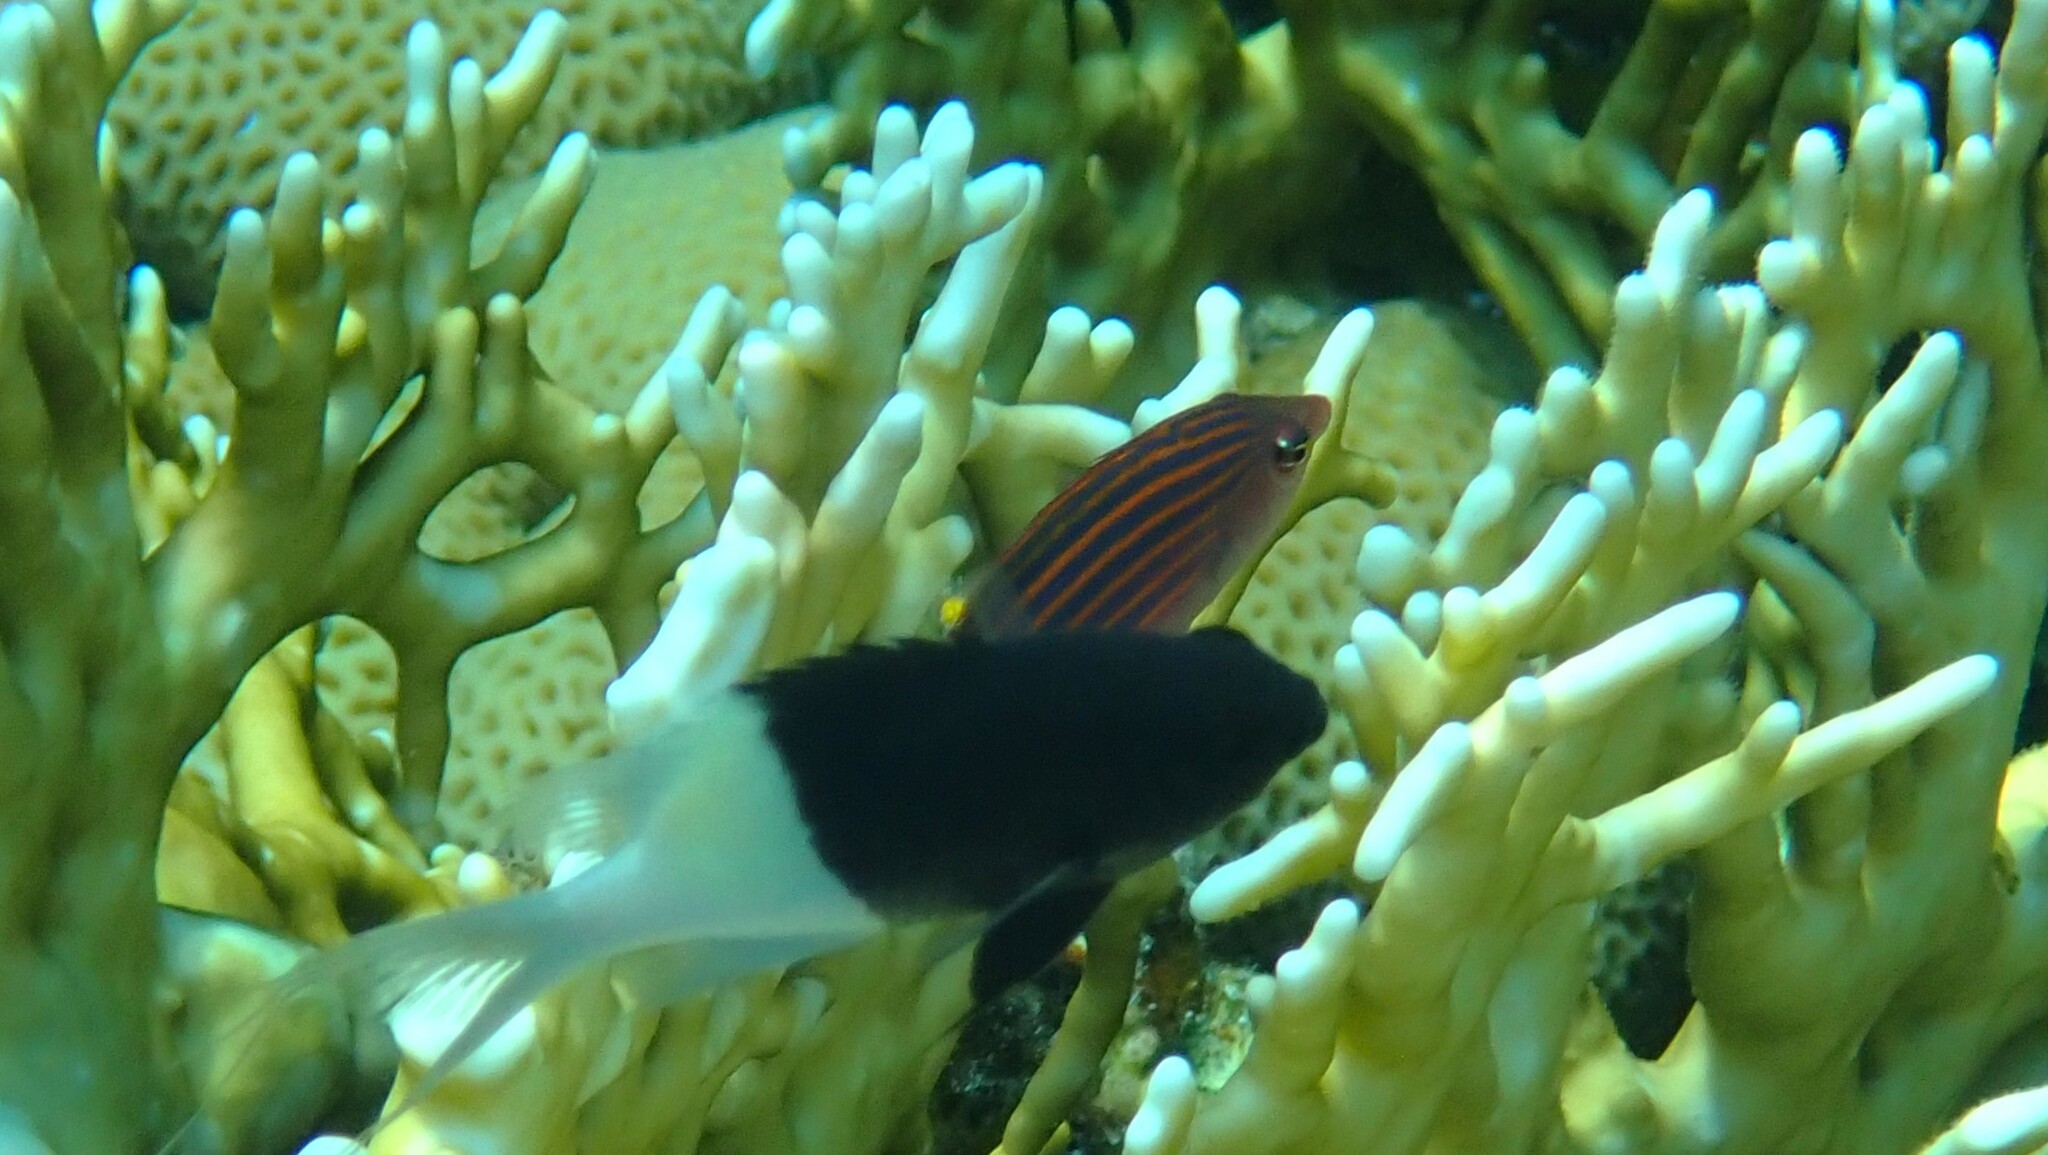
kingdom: Animalia
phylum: Chordata
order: Perciformes
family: Labridae
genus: Pseudocheilinus
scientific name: Pseudocheilinus hexataenia
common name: Sixline wrasse
